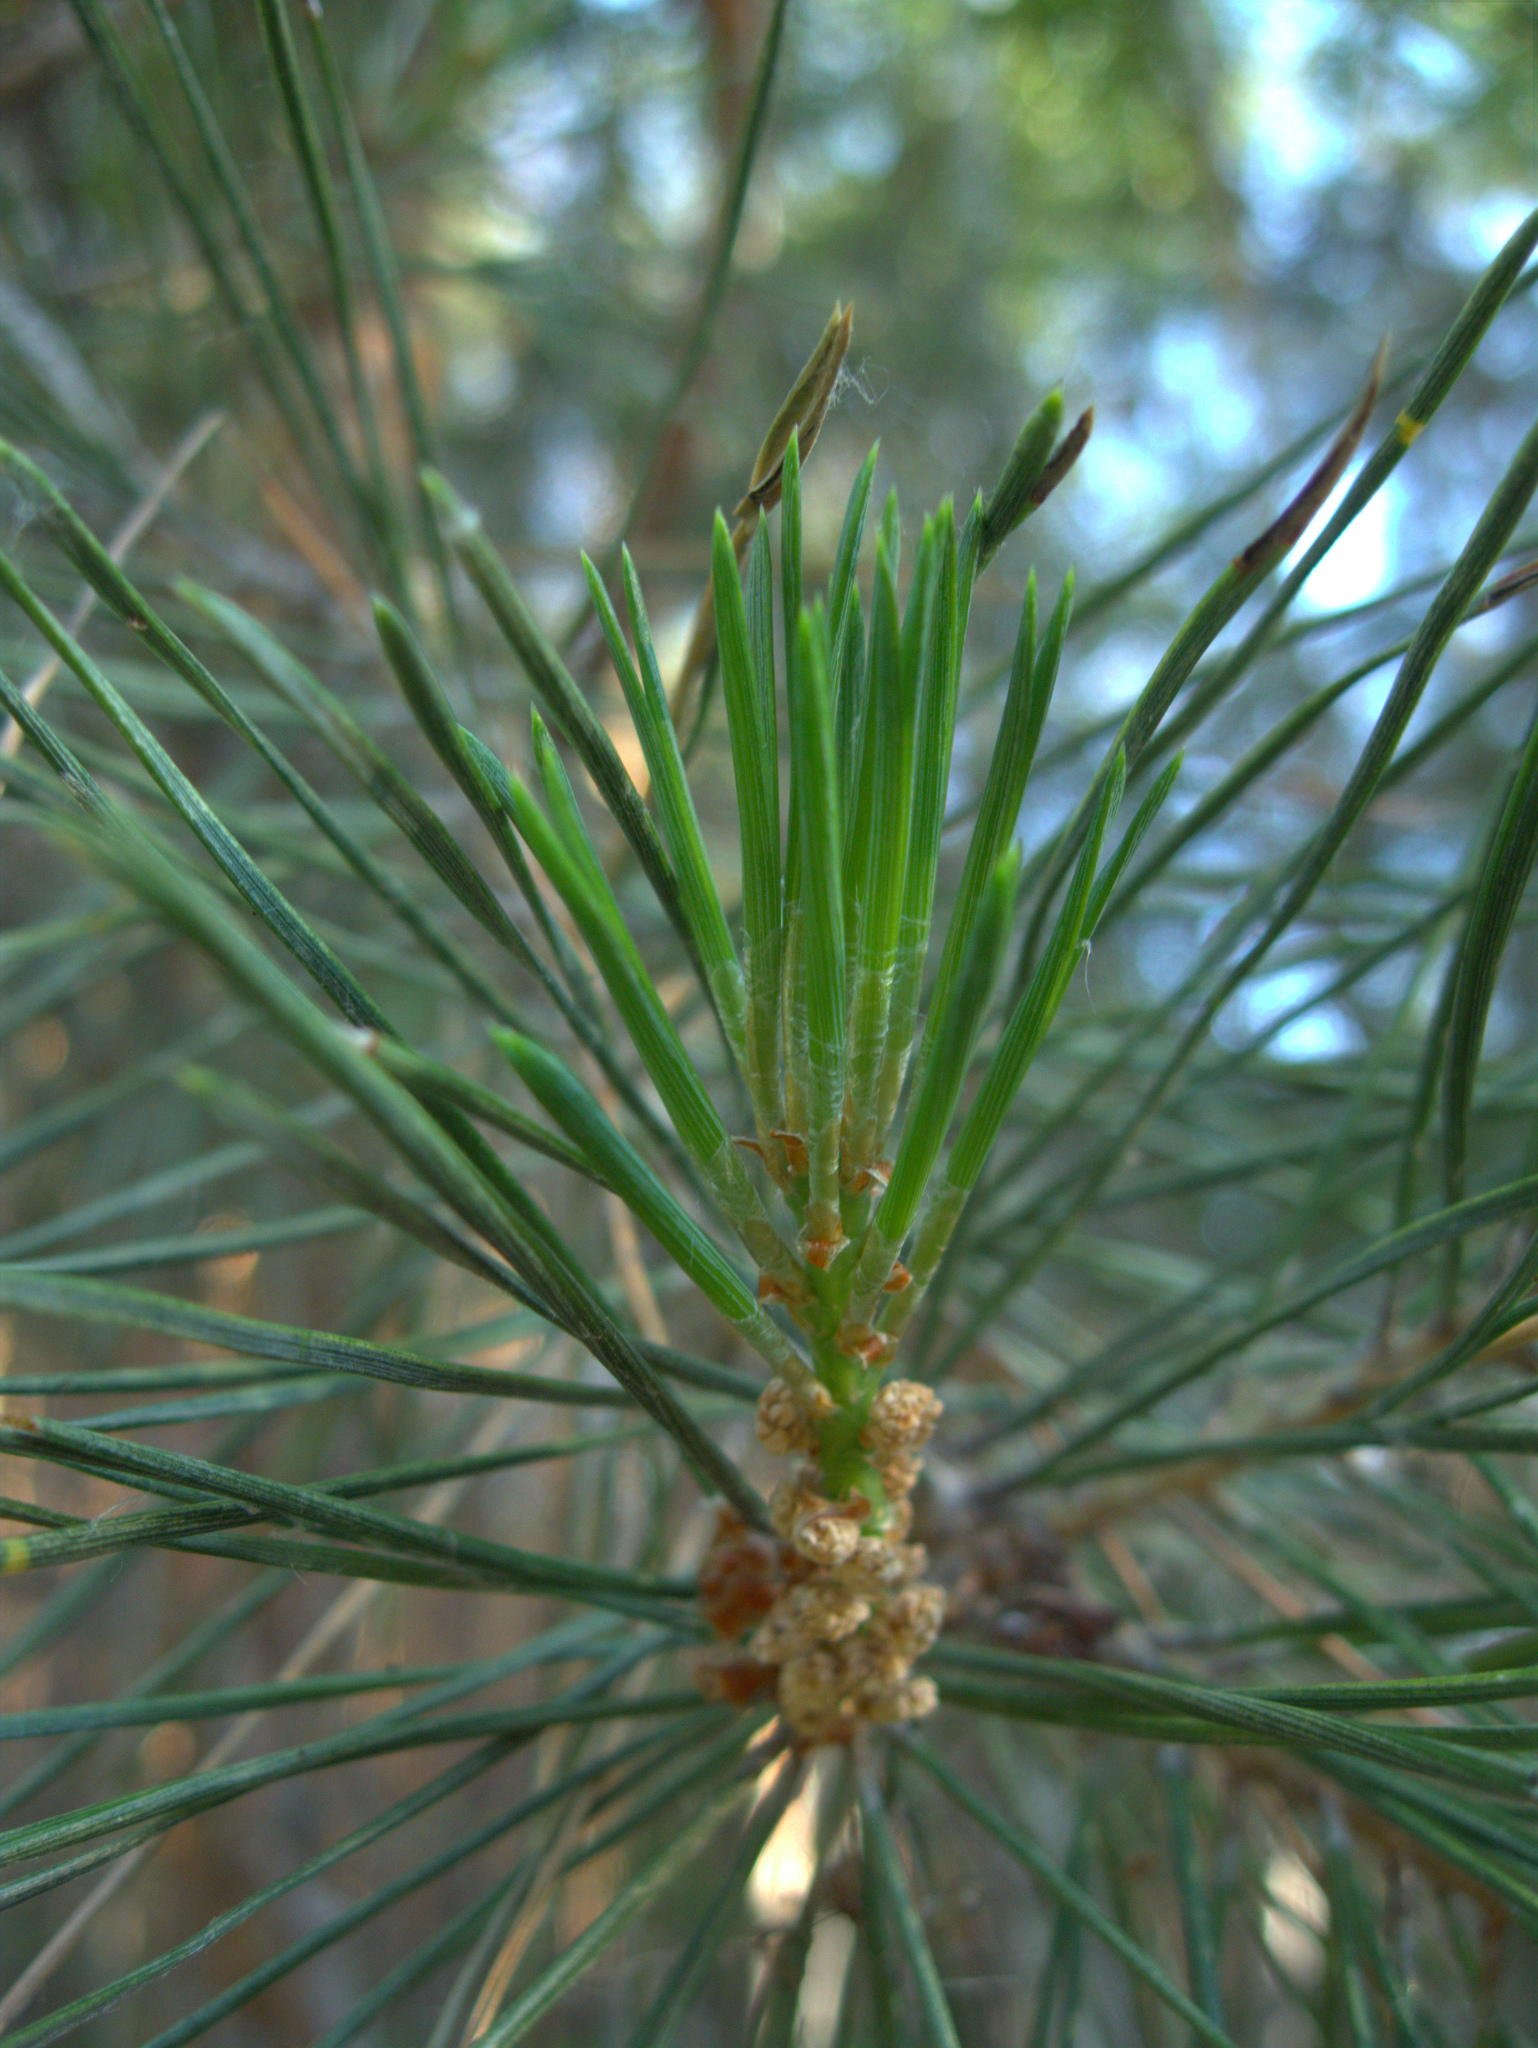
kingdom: Plantae
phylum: Tracheophyta
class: Pinopsida
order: Pinales
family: Pinaceae
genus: Pinus
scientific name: Pinus sylvestris
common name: Scots pine
